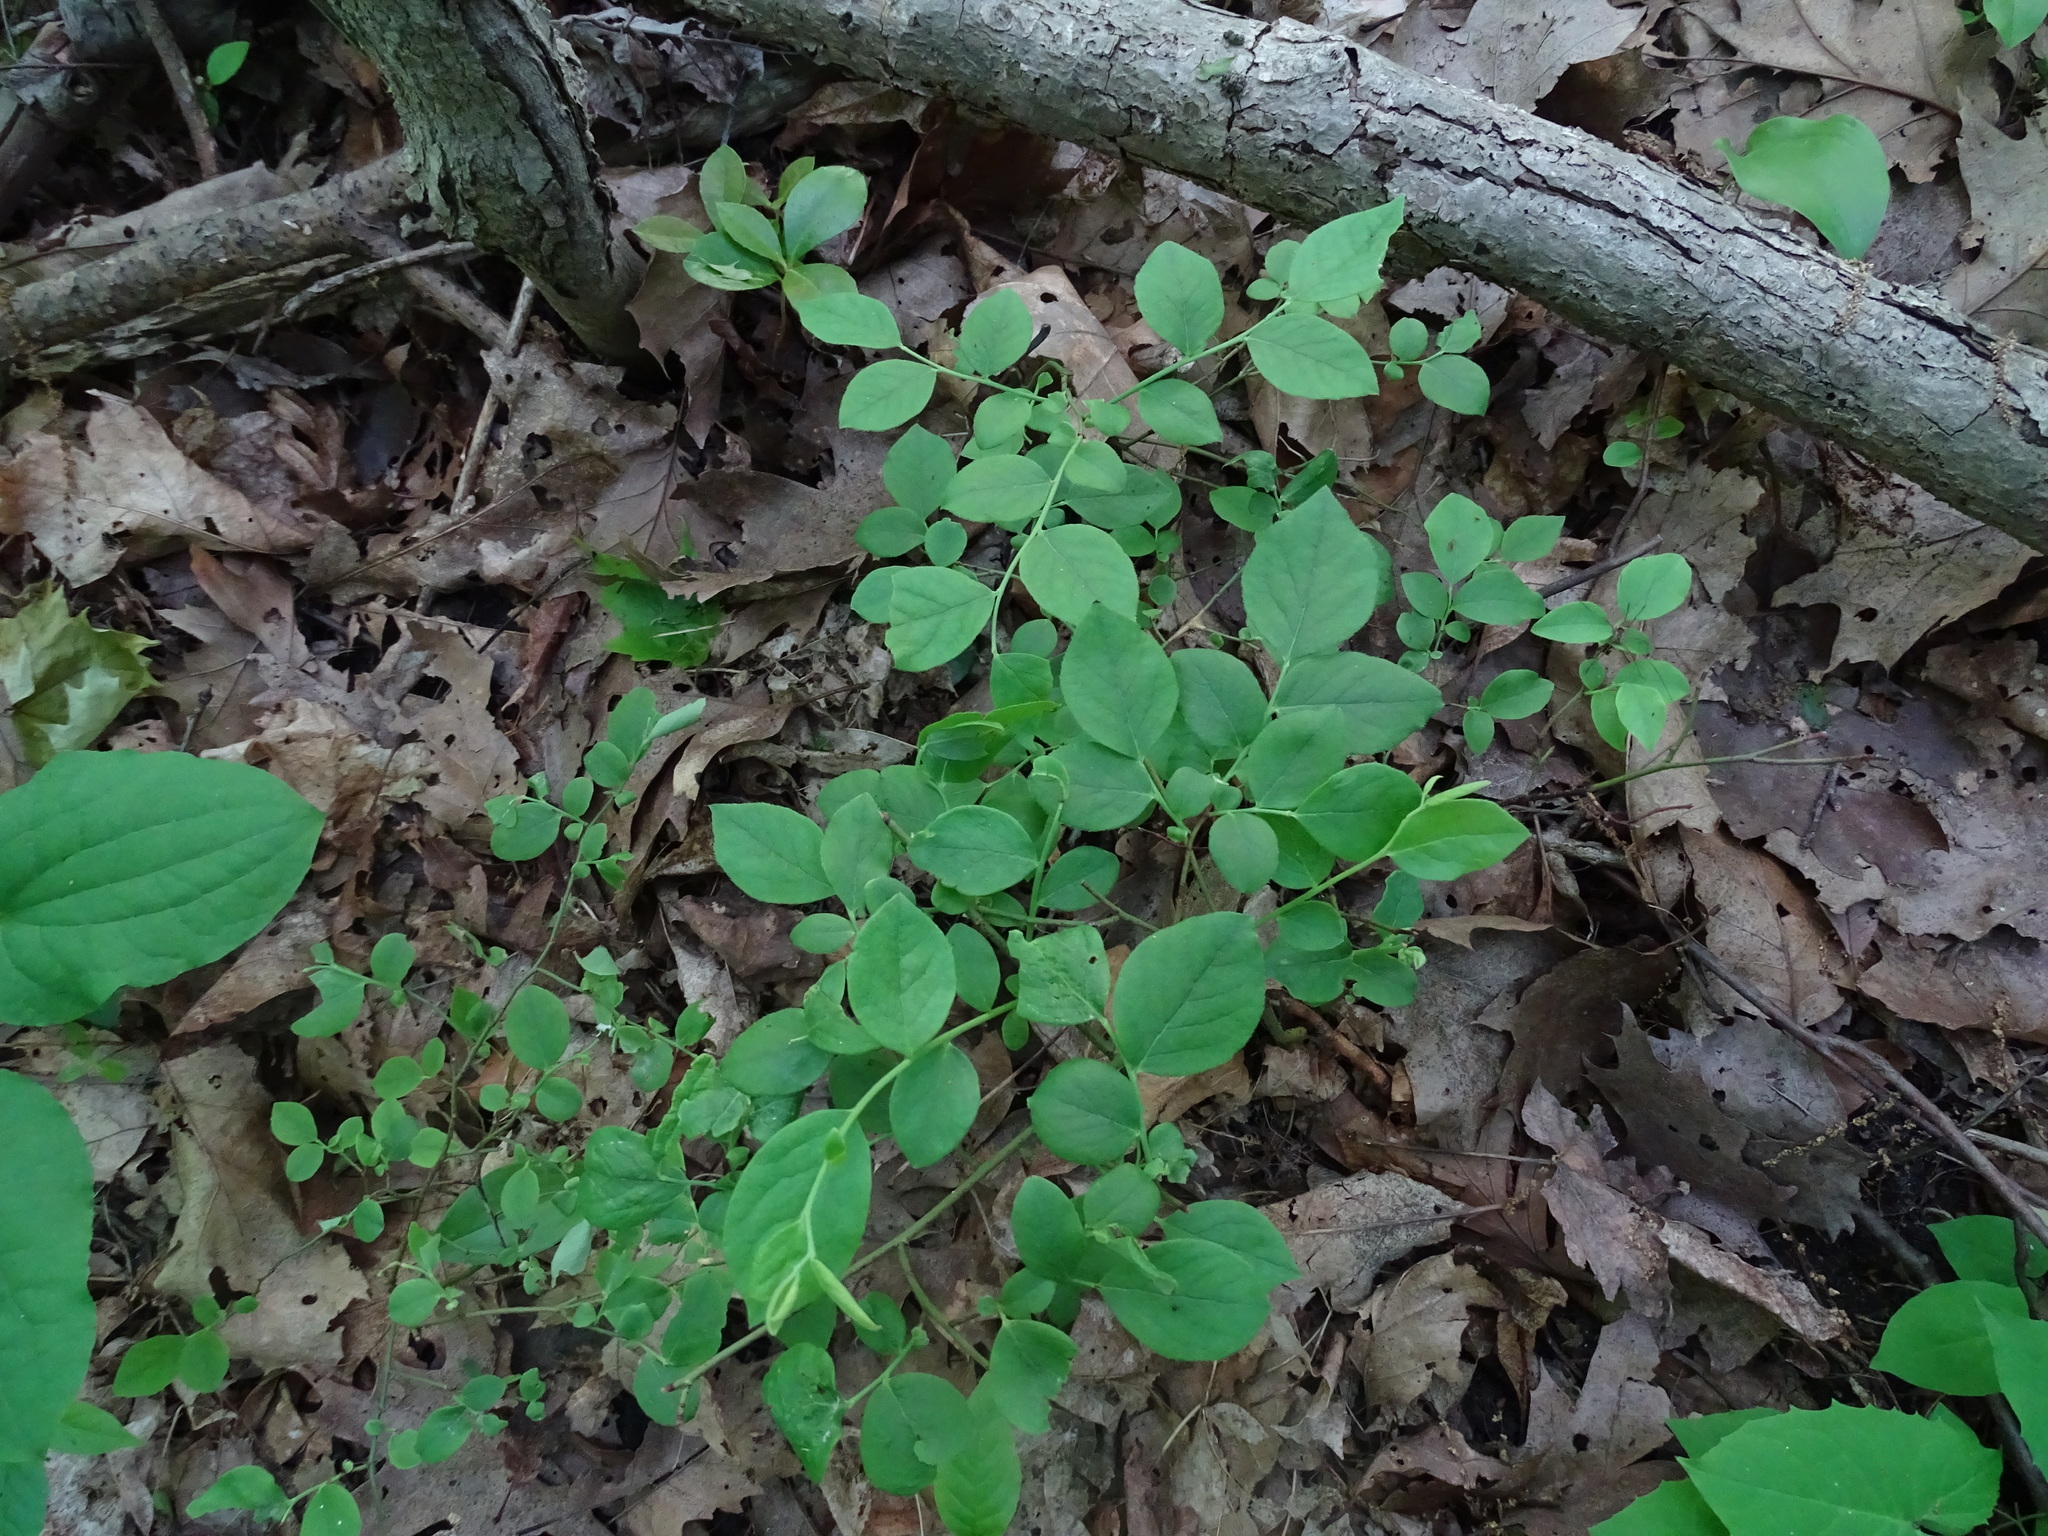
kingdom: Plantae
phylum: Tracheophyta
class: Magnoliopsida
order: Ericales
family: Ericaceae
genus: Vaccinium
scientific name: Vaccinium pallidum
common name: Blue ridge blueberry
